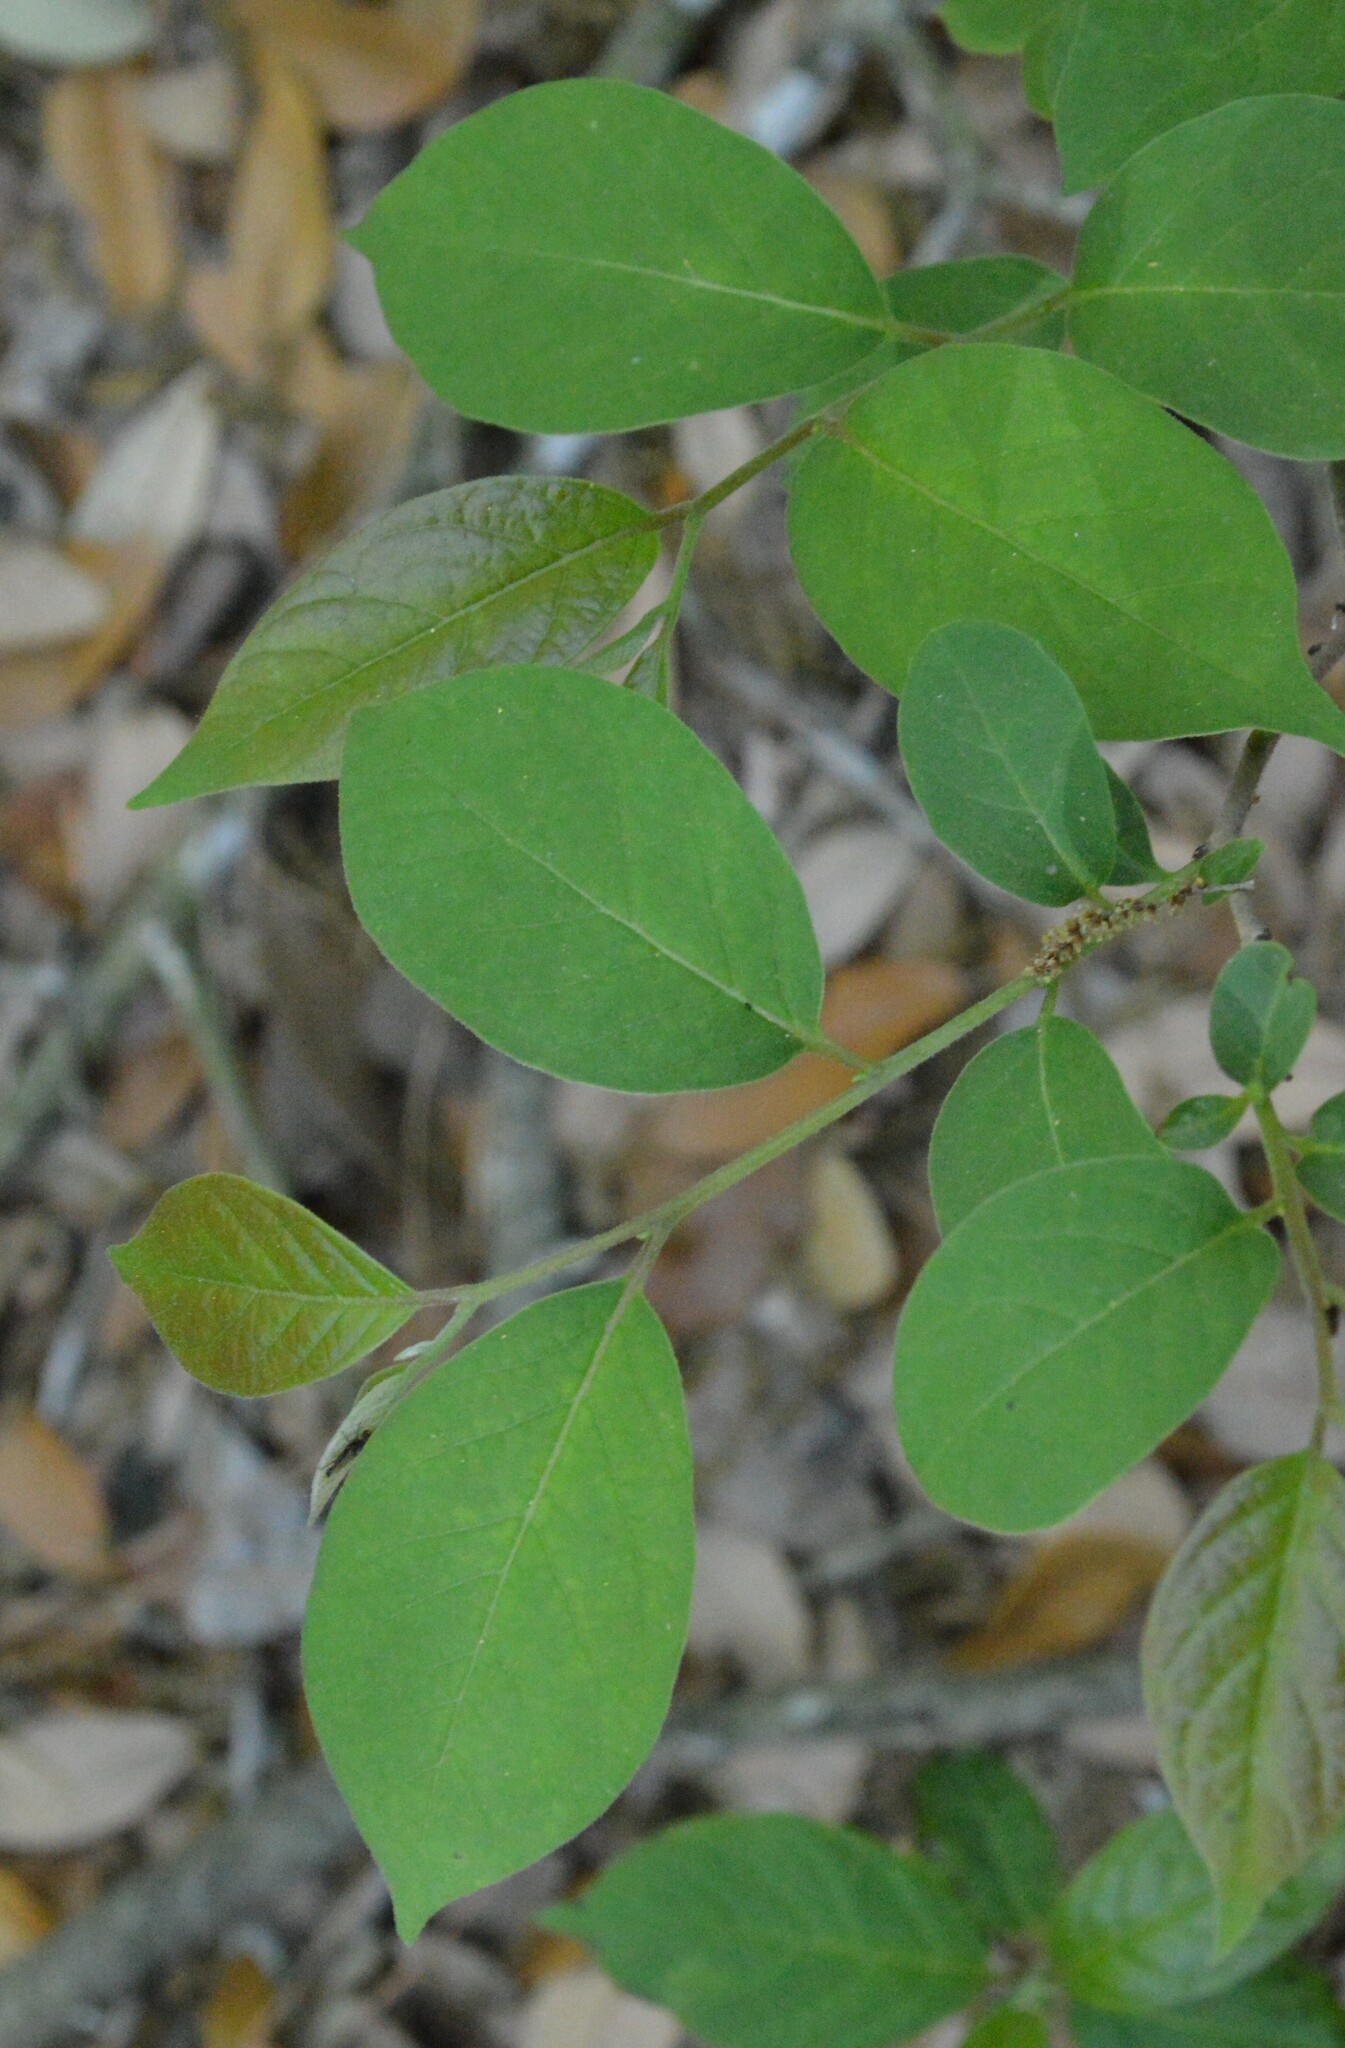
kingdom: Plantae
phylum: Tracheophyta
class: Magnoliopsida
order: Ericales
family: Ebenaceae
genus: Diospyros
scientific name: Diospyros virginiana
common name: Persimmon
